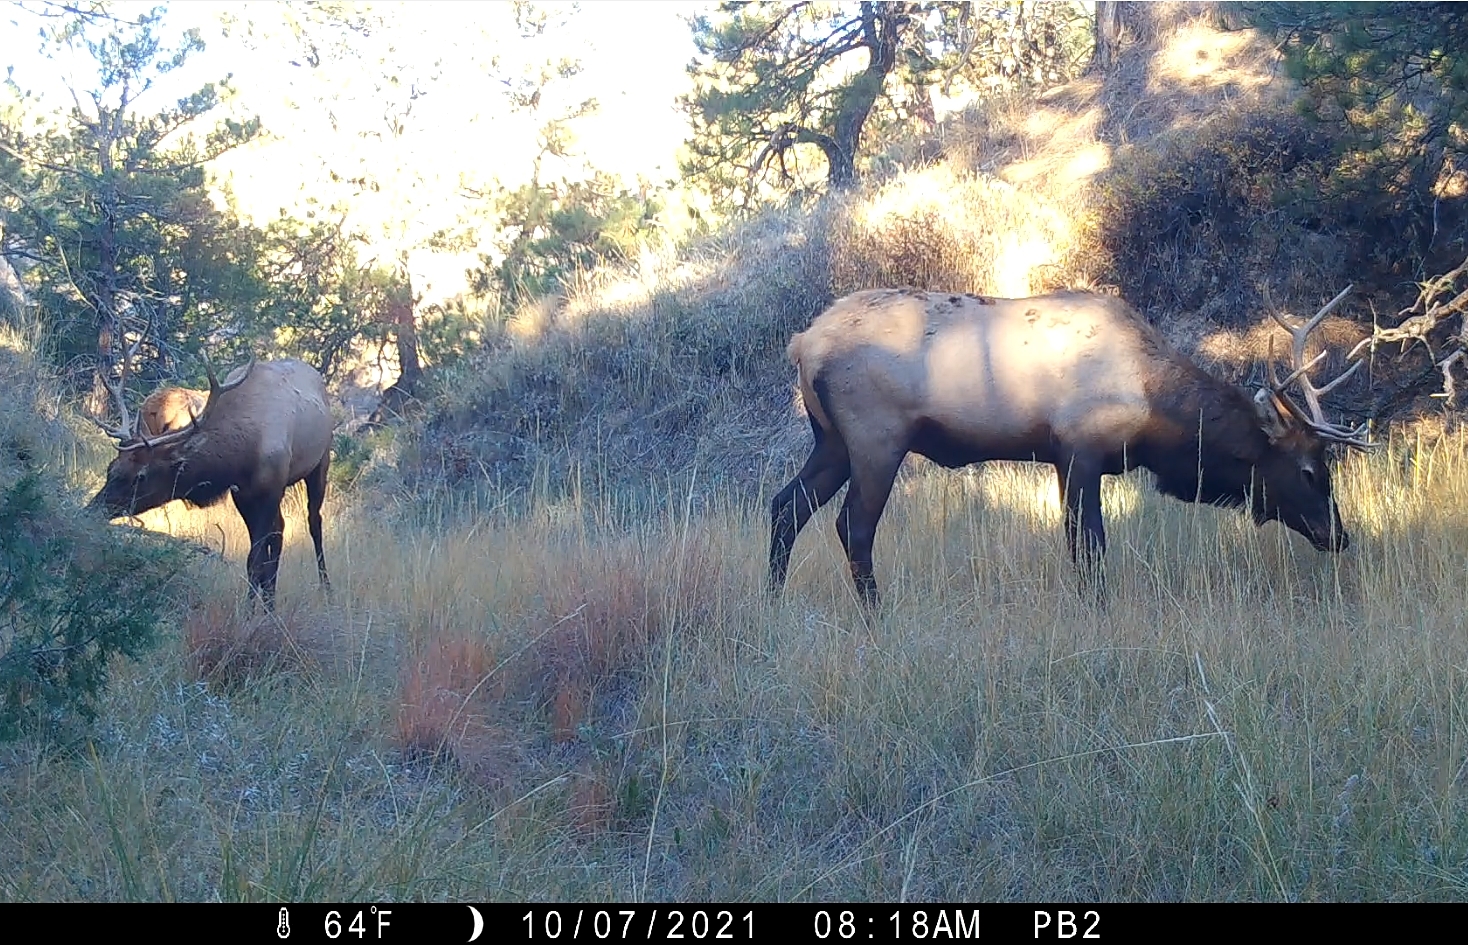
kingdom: Animalia
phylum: Chordata
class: Mammalia
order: Artiodactyla
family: Cervidae
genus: Cervus
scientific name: Cervus elaphus
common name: Red deer
